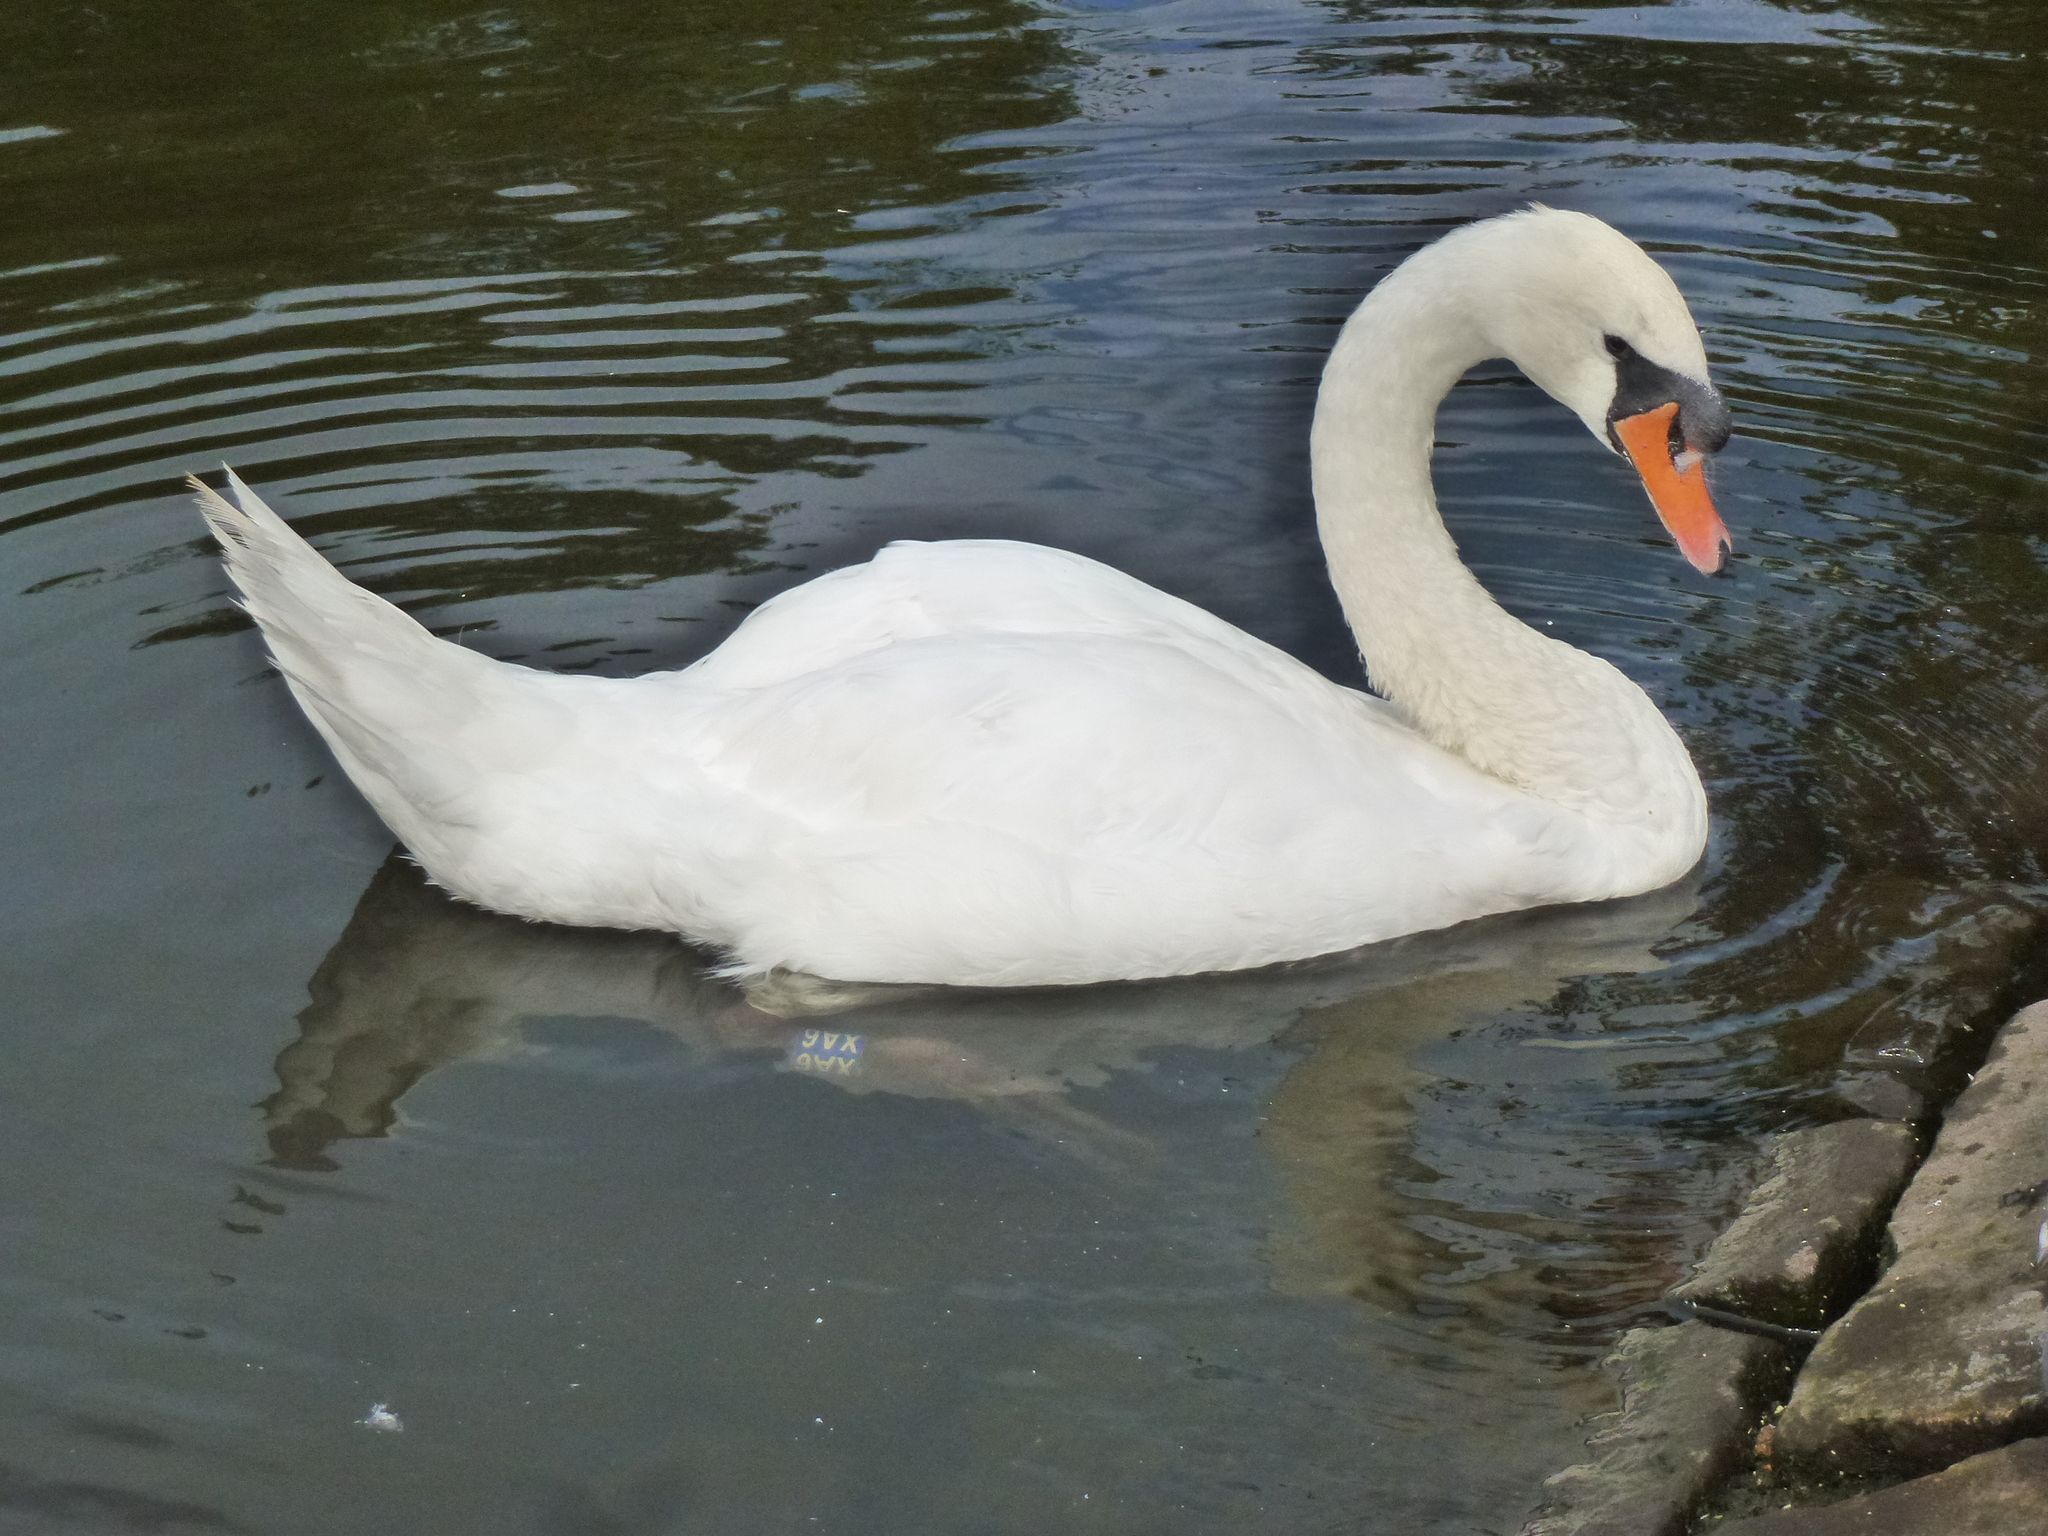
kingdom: Animalia
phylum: Chordata
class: Aves
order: Anseriformes
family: Anatidae
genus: Cygnus
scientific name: Cygnus olor
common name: Mute swan
